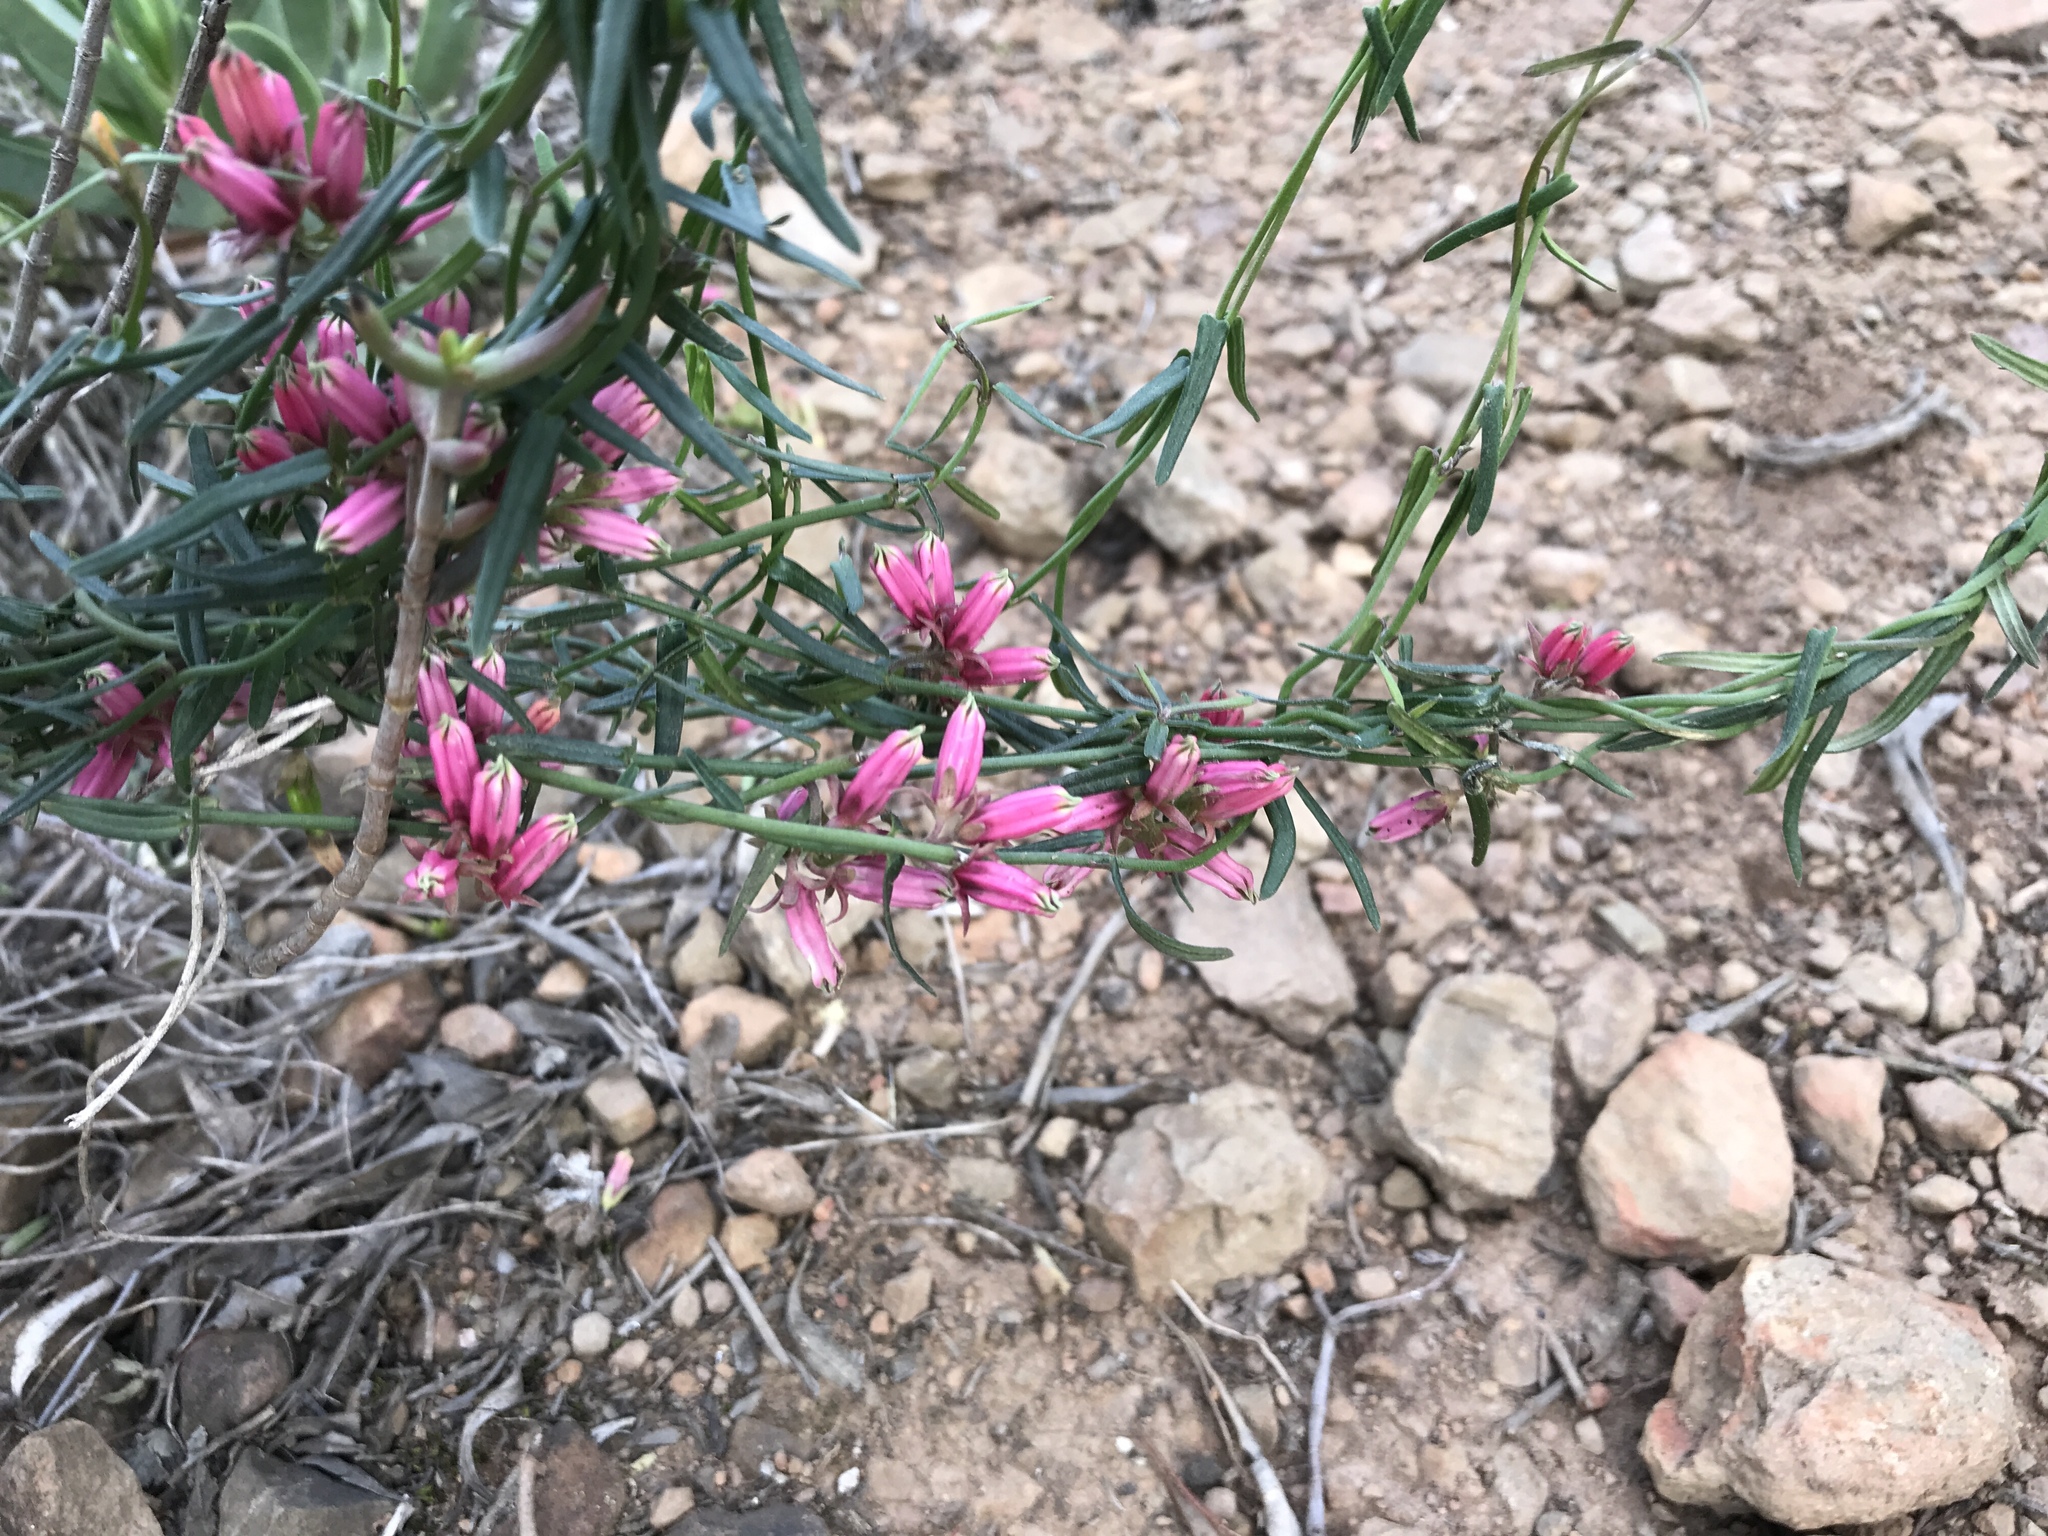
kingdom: Plantae
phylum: Tracheophyta
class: Magnoliopsida
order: Gentianales
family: Apocynaceae
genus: Microloma
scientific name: Microloma sagittatum
